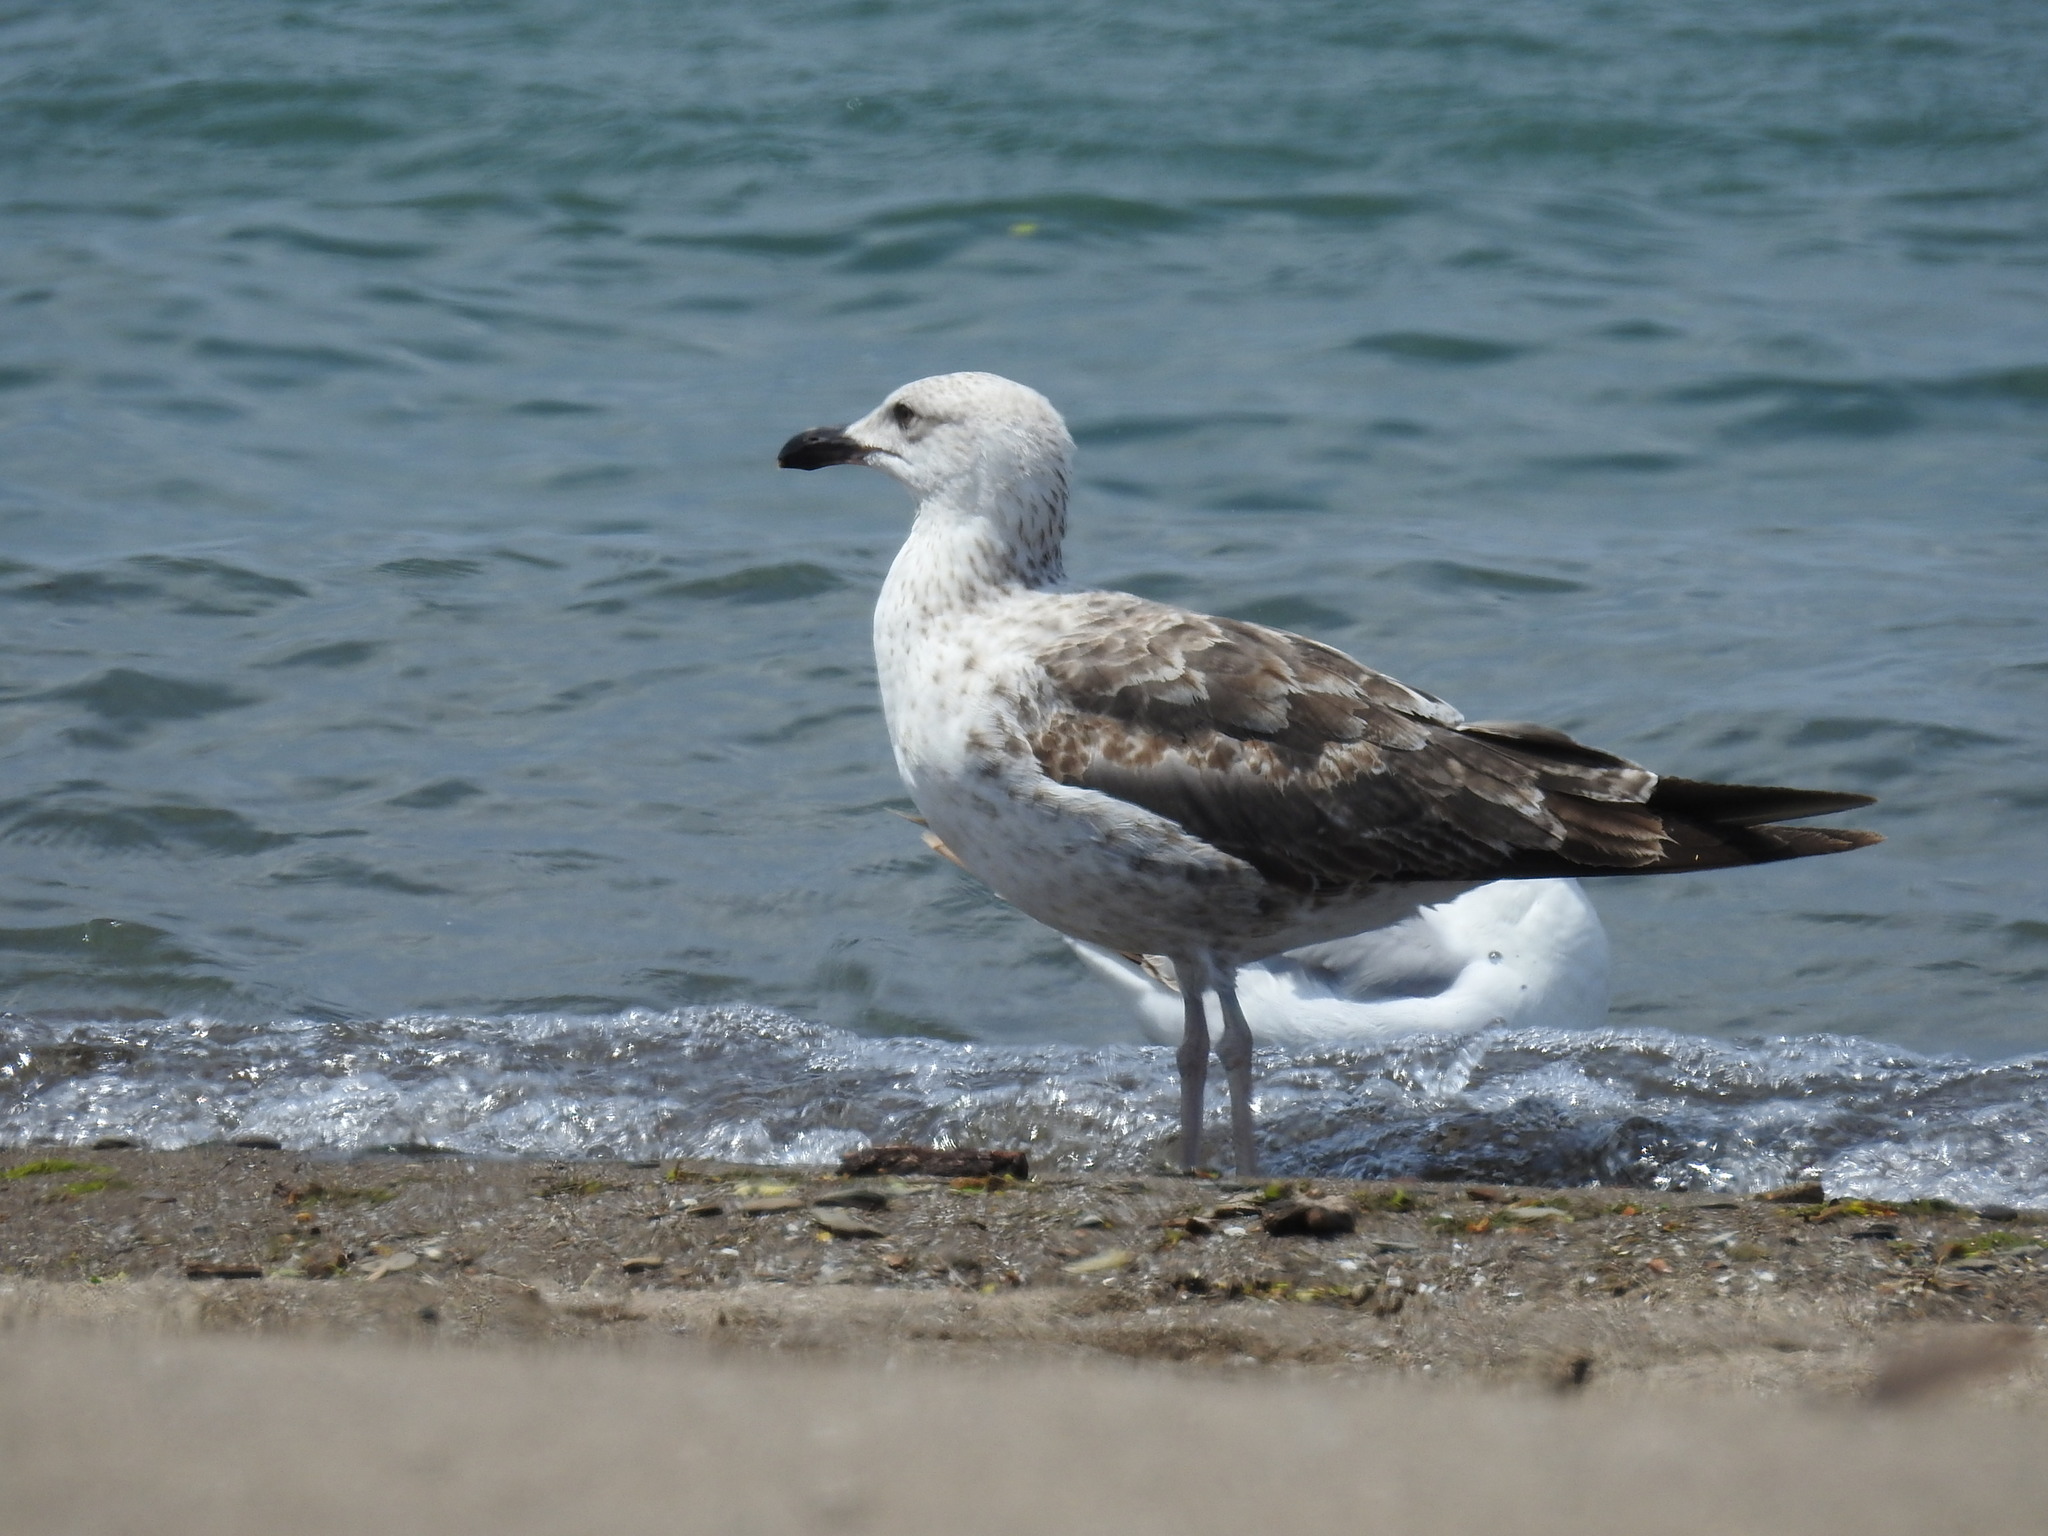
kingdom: Animalia
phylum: Chordata
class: Aves
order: Charadriiformes
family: Laridae
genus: Larus
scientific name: Larus fuscus
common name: Lesser black-backed gull
